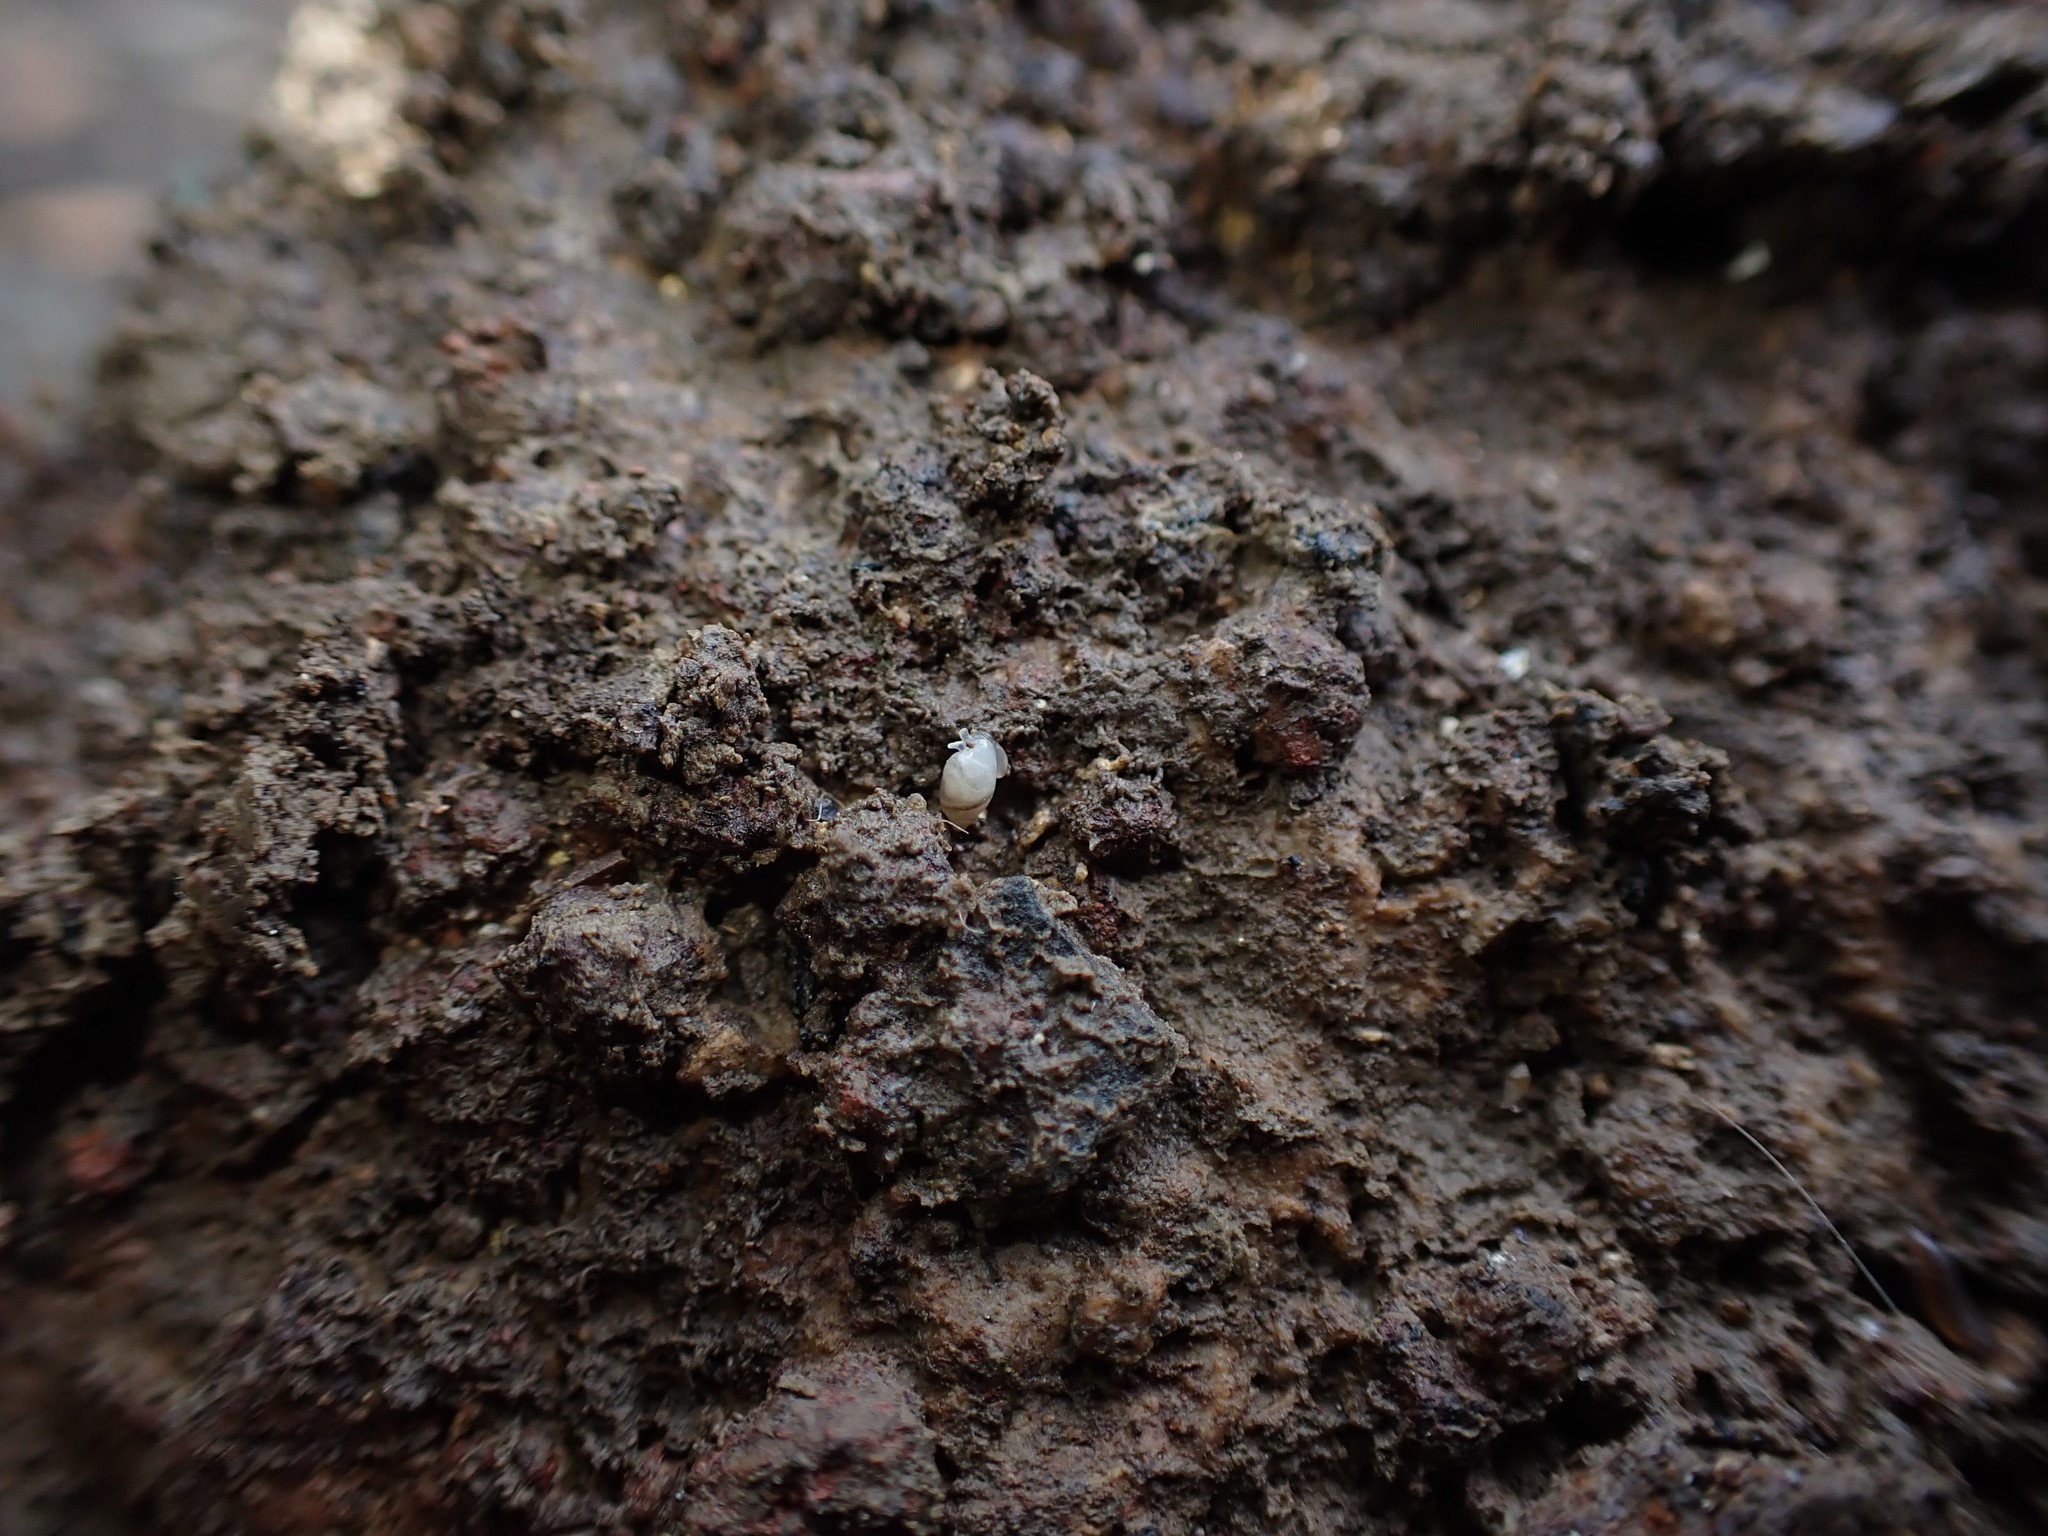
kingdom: Animalia
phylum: Mollusca
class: Gastropoda
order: Ellobiida
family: Ellobiidae
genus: Microtralia
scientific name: Microtralia insularis
